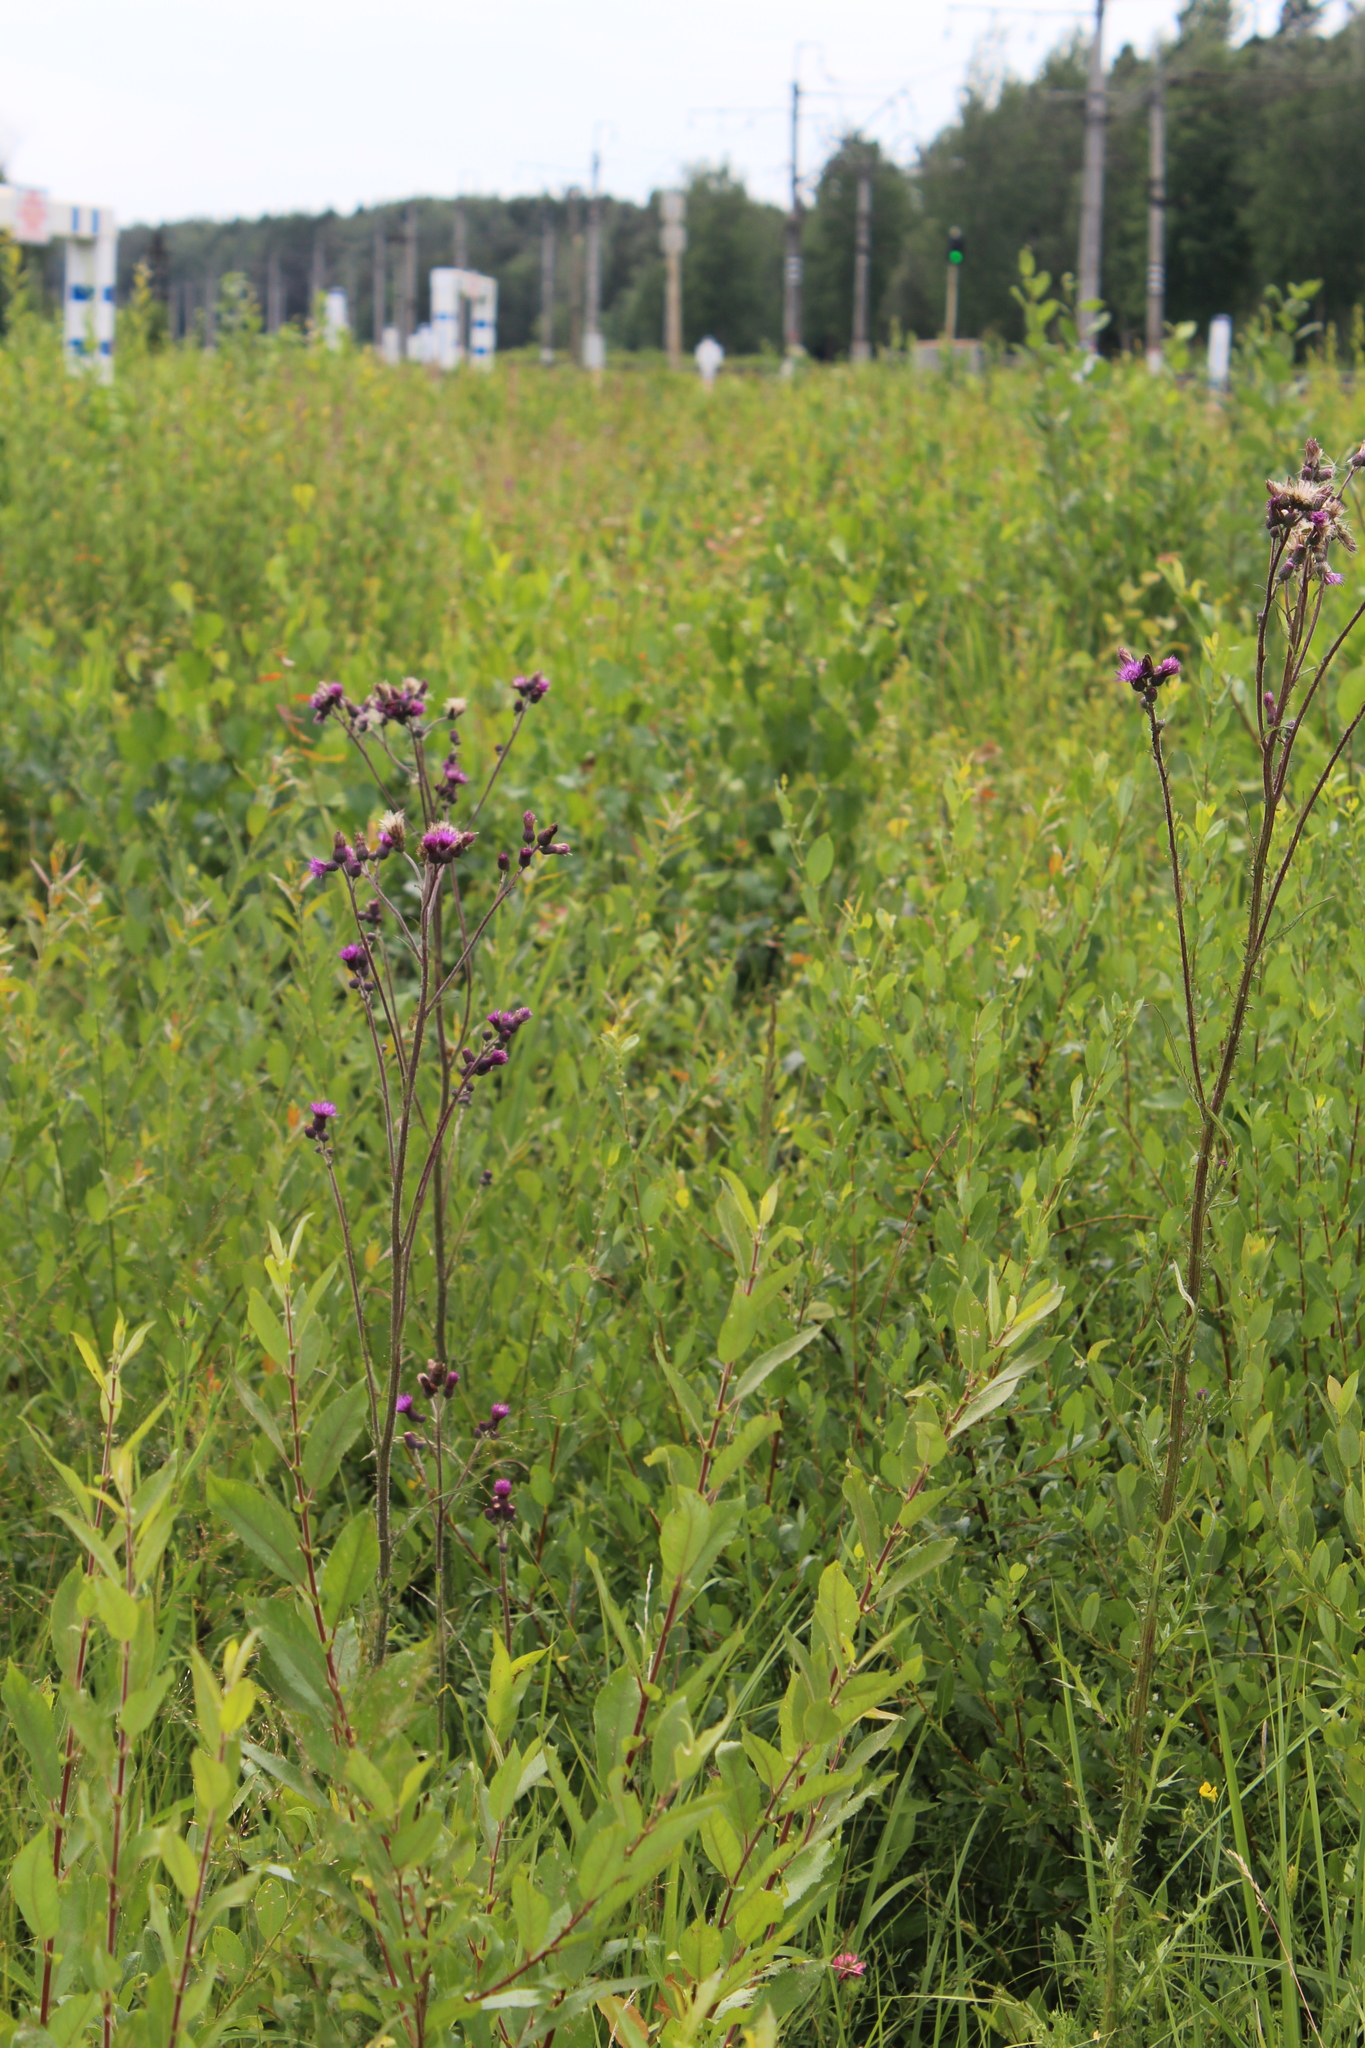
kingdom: Plantae
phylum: Tracheophyta
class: Magnoliopsida
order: Asterales
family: Asteraceae
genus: Cirsium
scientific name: Cirsium palustre
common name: Marsh thistle
